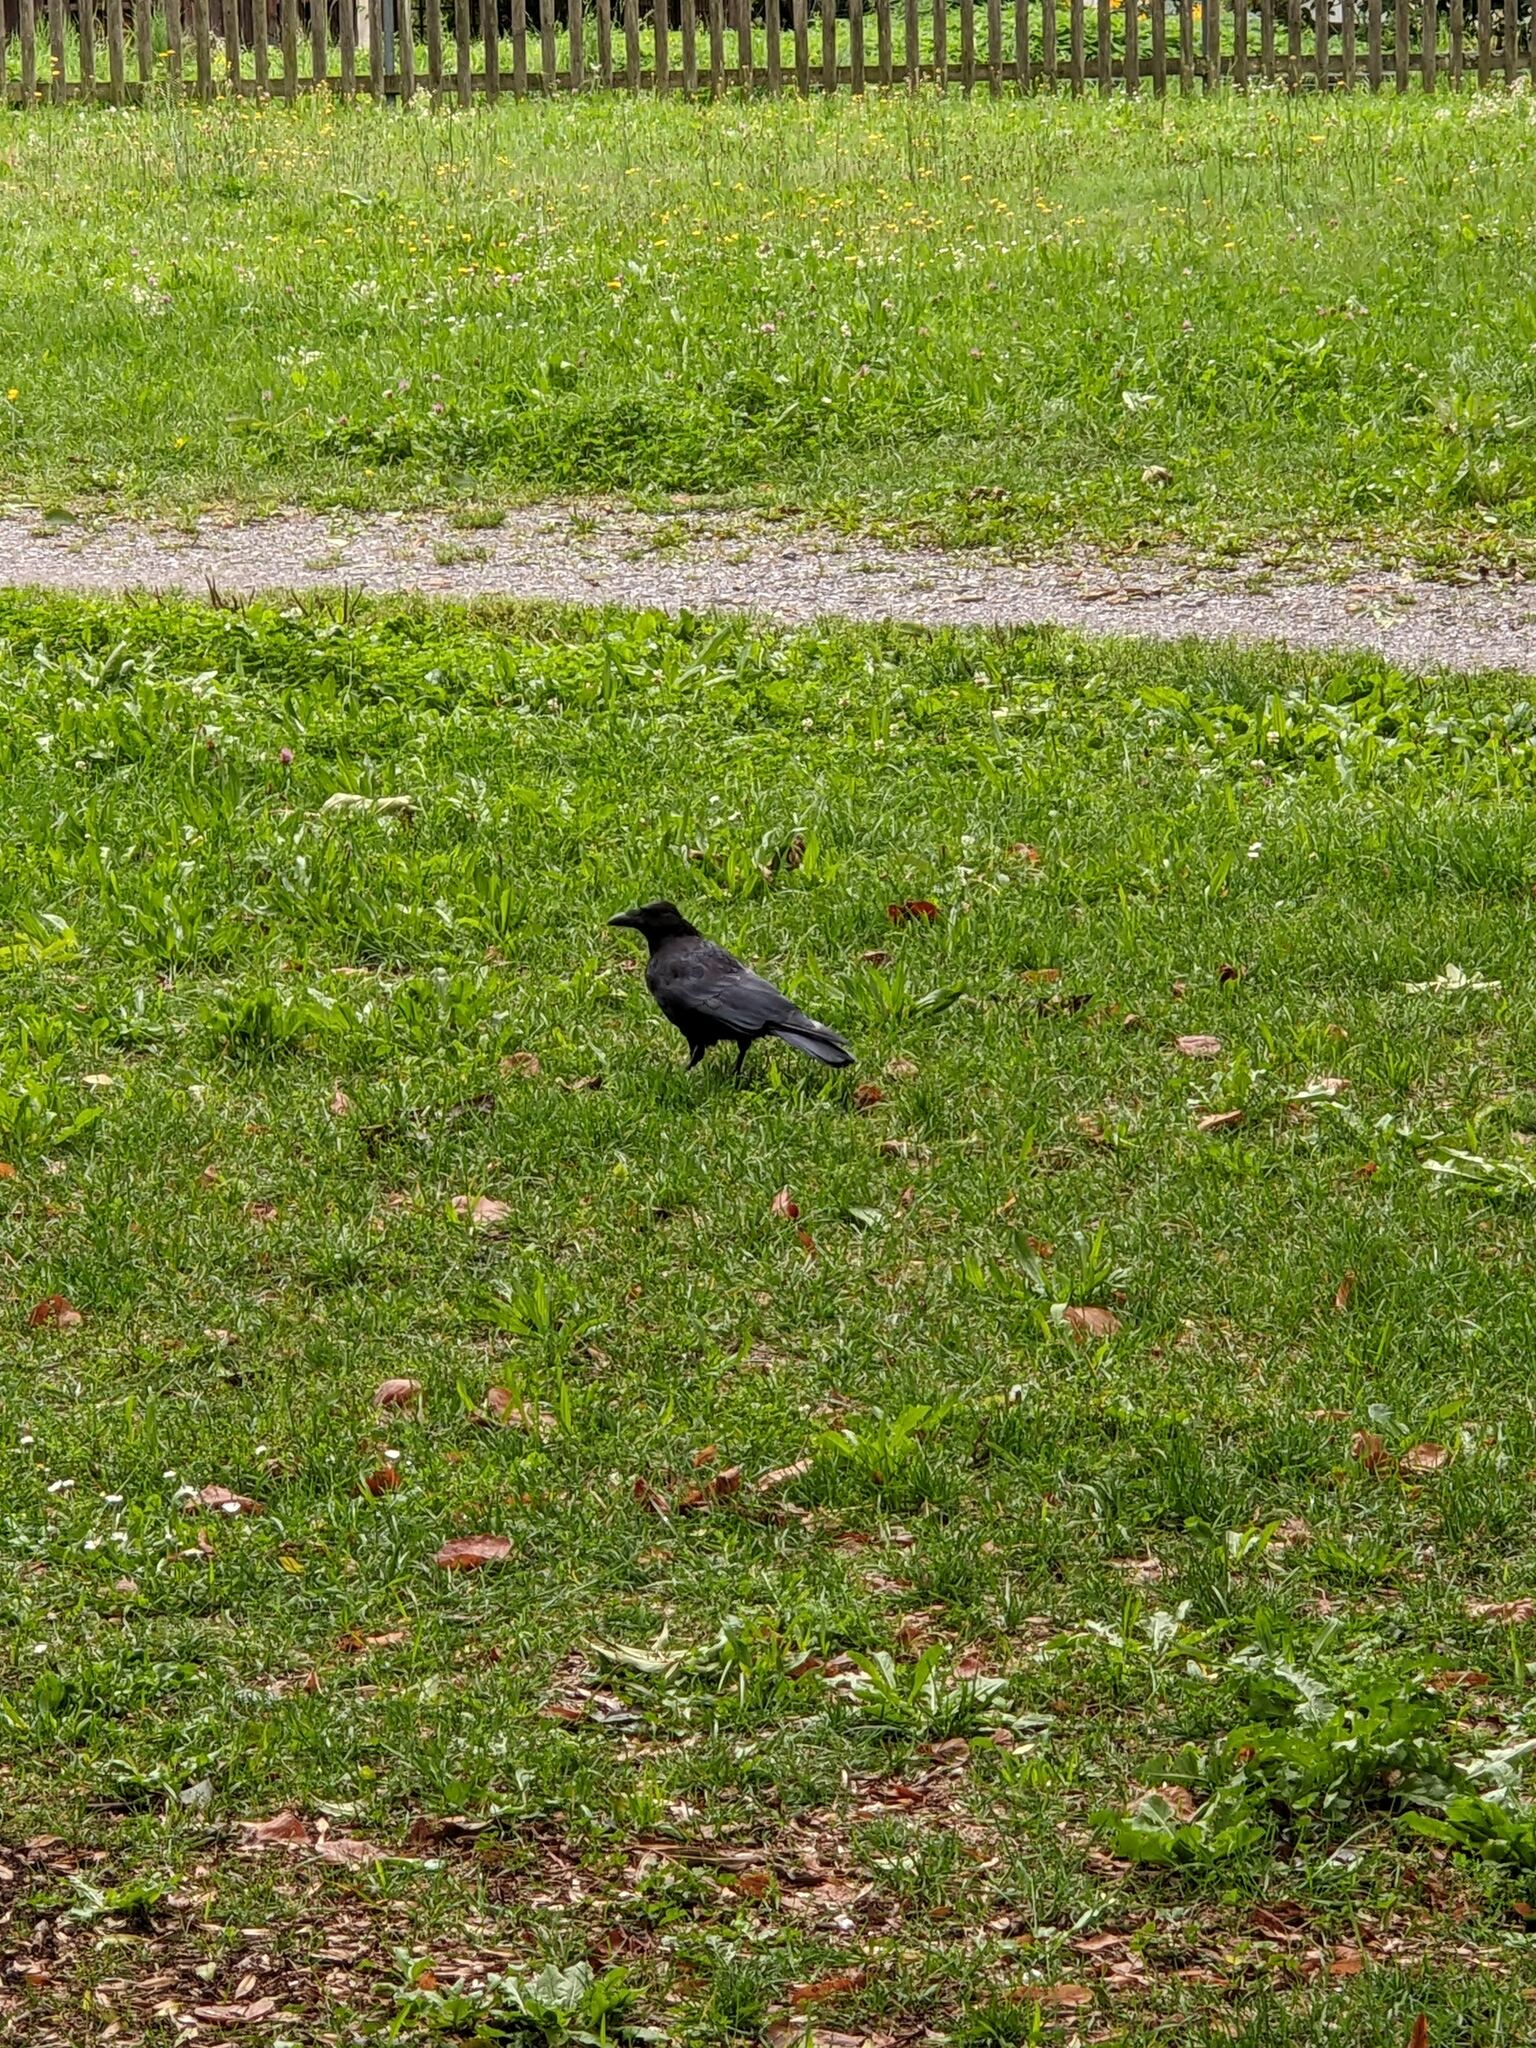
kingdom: Animalia
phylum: Chordata
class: Aves
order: Passeriformes
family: Corvidae
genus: Corvus
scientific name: Corvus corone
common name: Carrion crow
